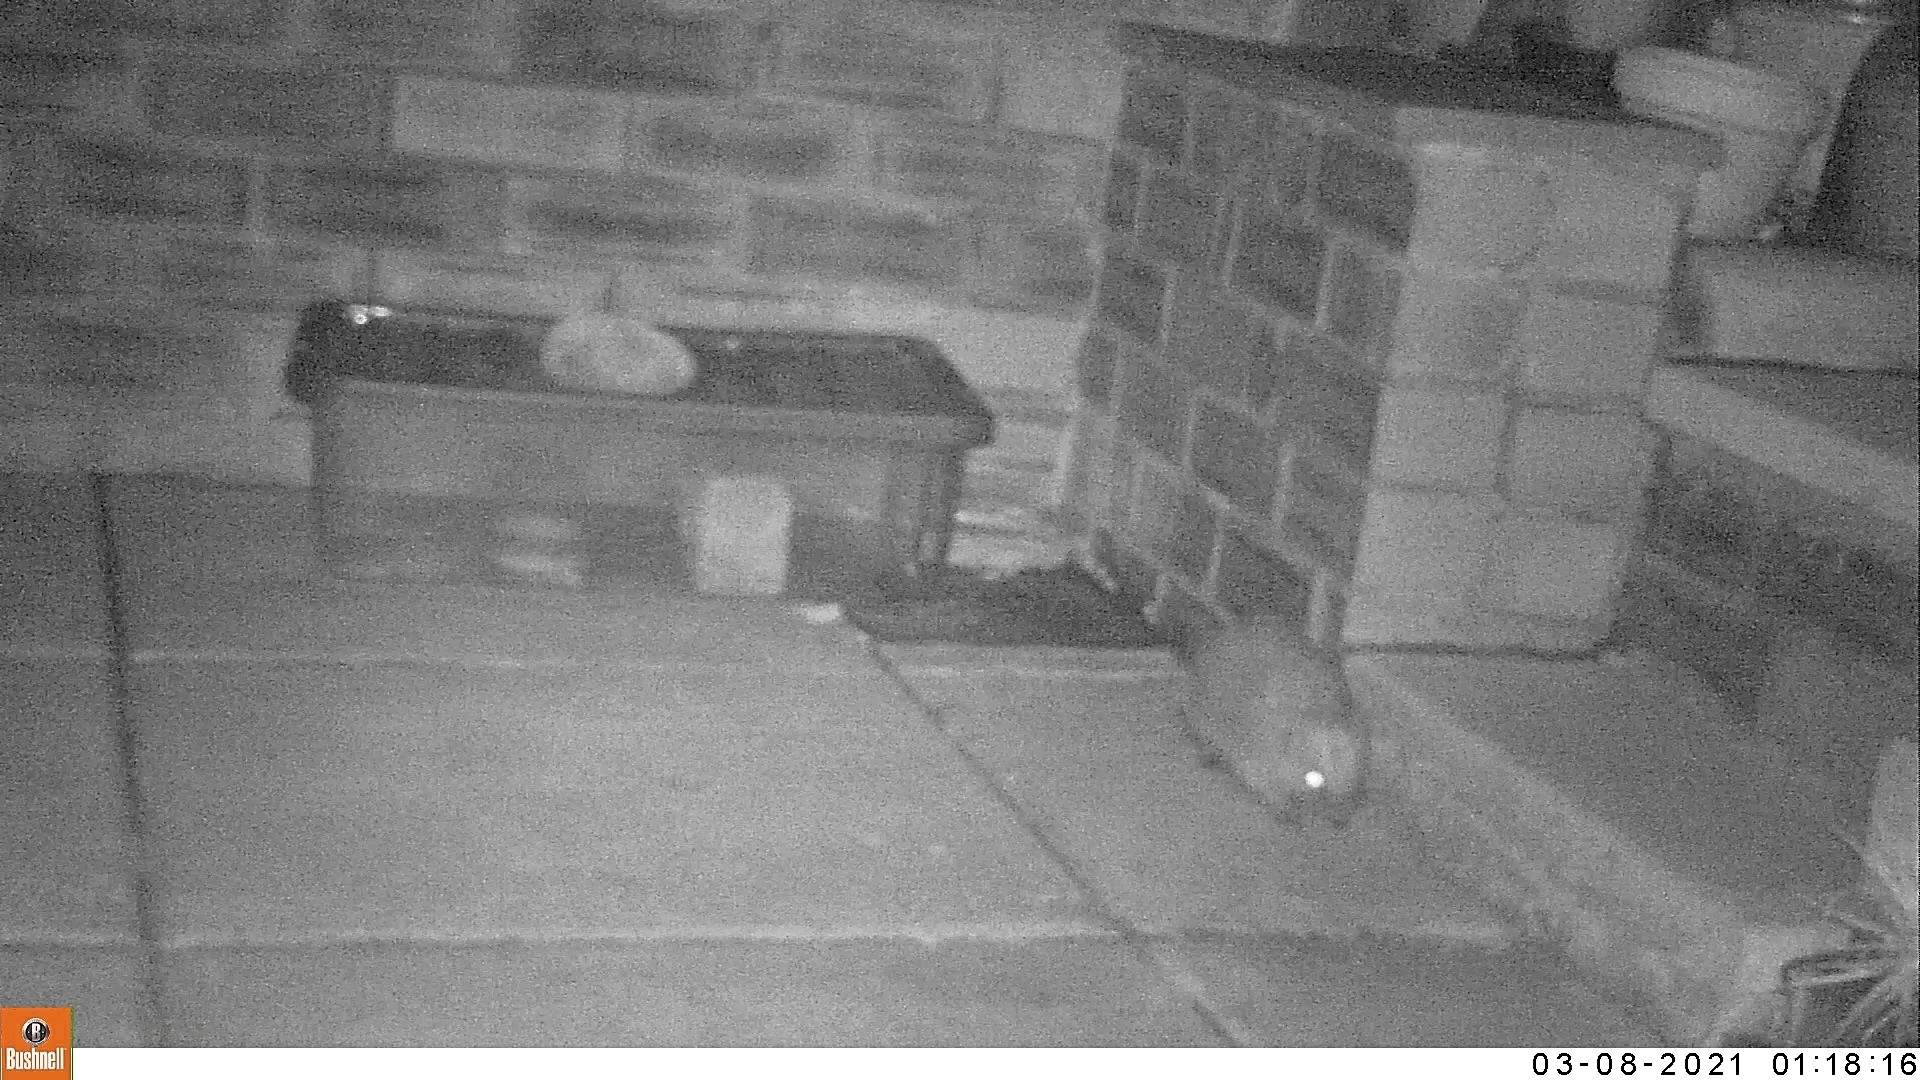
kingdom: Animalia
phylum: Chordata
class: Mammalia
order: Erinaceomorpha
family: Erinaceidae
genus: Erinaceus
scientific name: Erinaceus europaeus
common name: West european hedgehog
